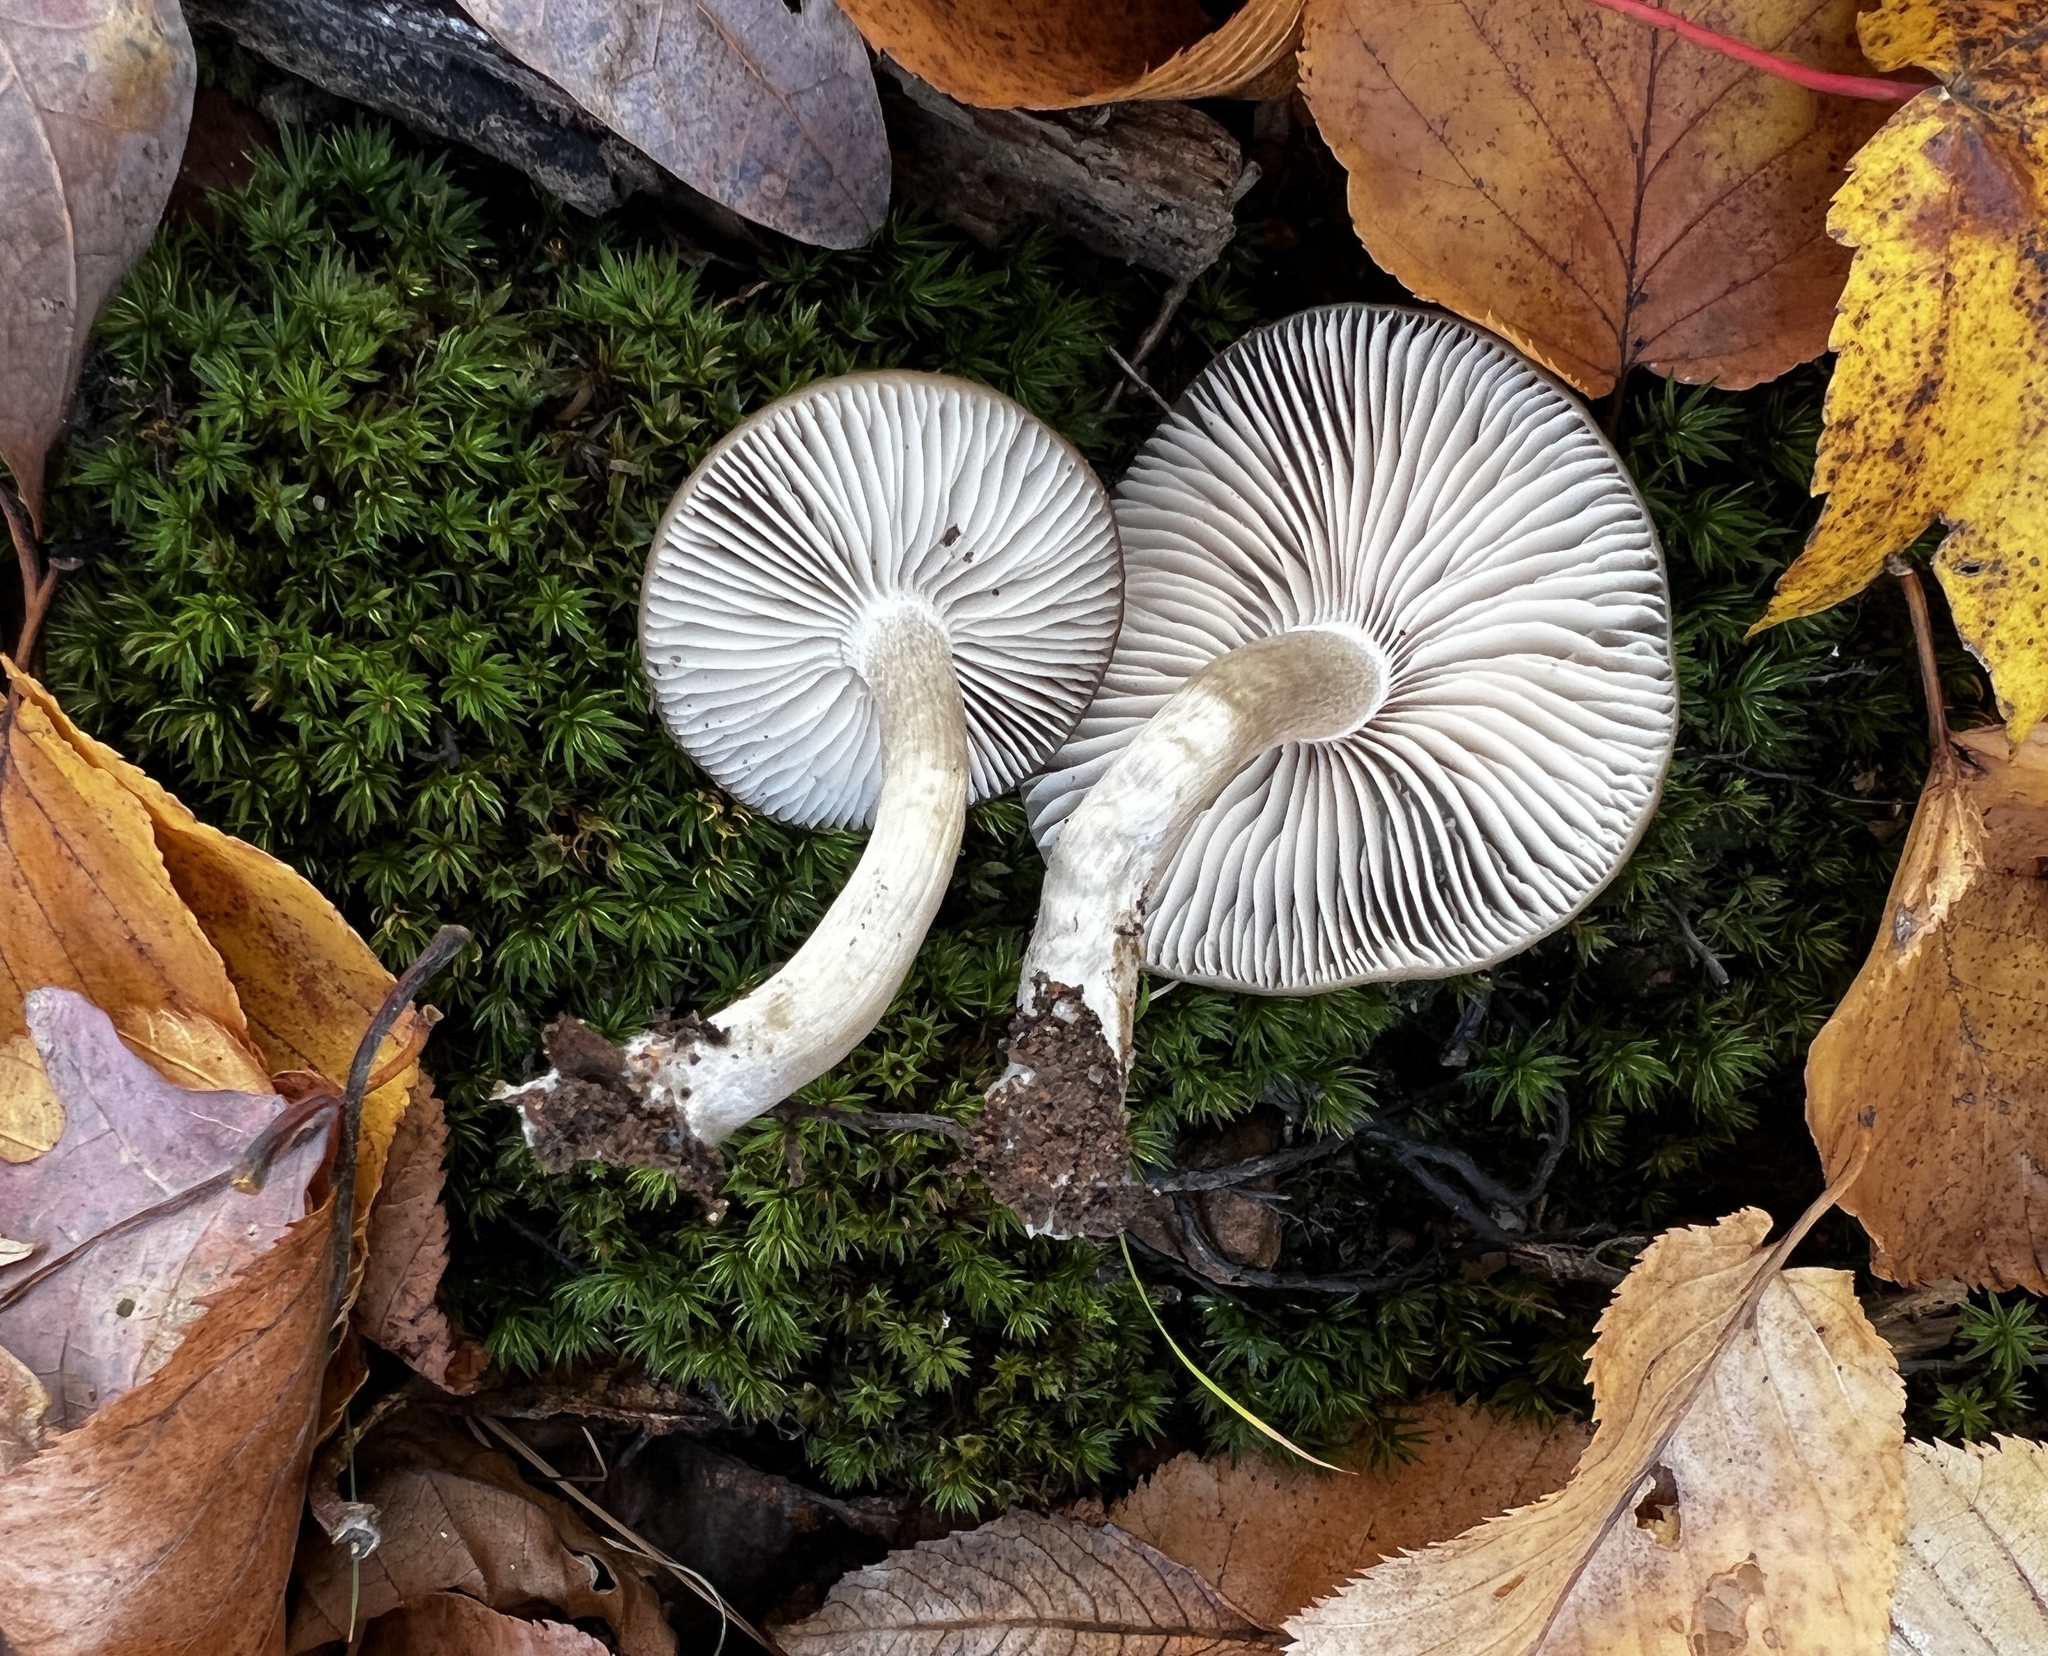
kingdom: Fungi
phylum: Basidiomycota
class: Agaricomycetes
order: Agaricales
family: Entolomataceae
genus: Entoloma
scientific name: Entoloma carolinianum
